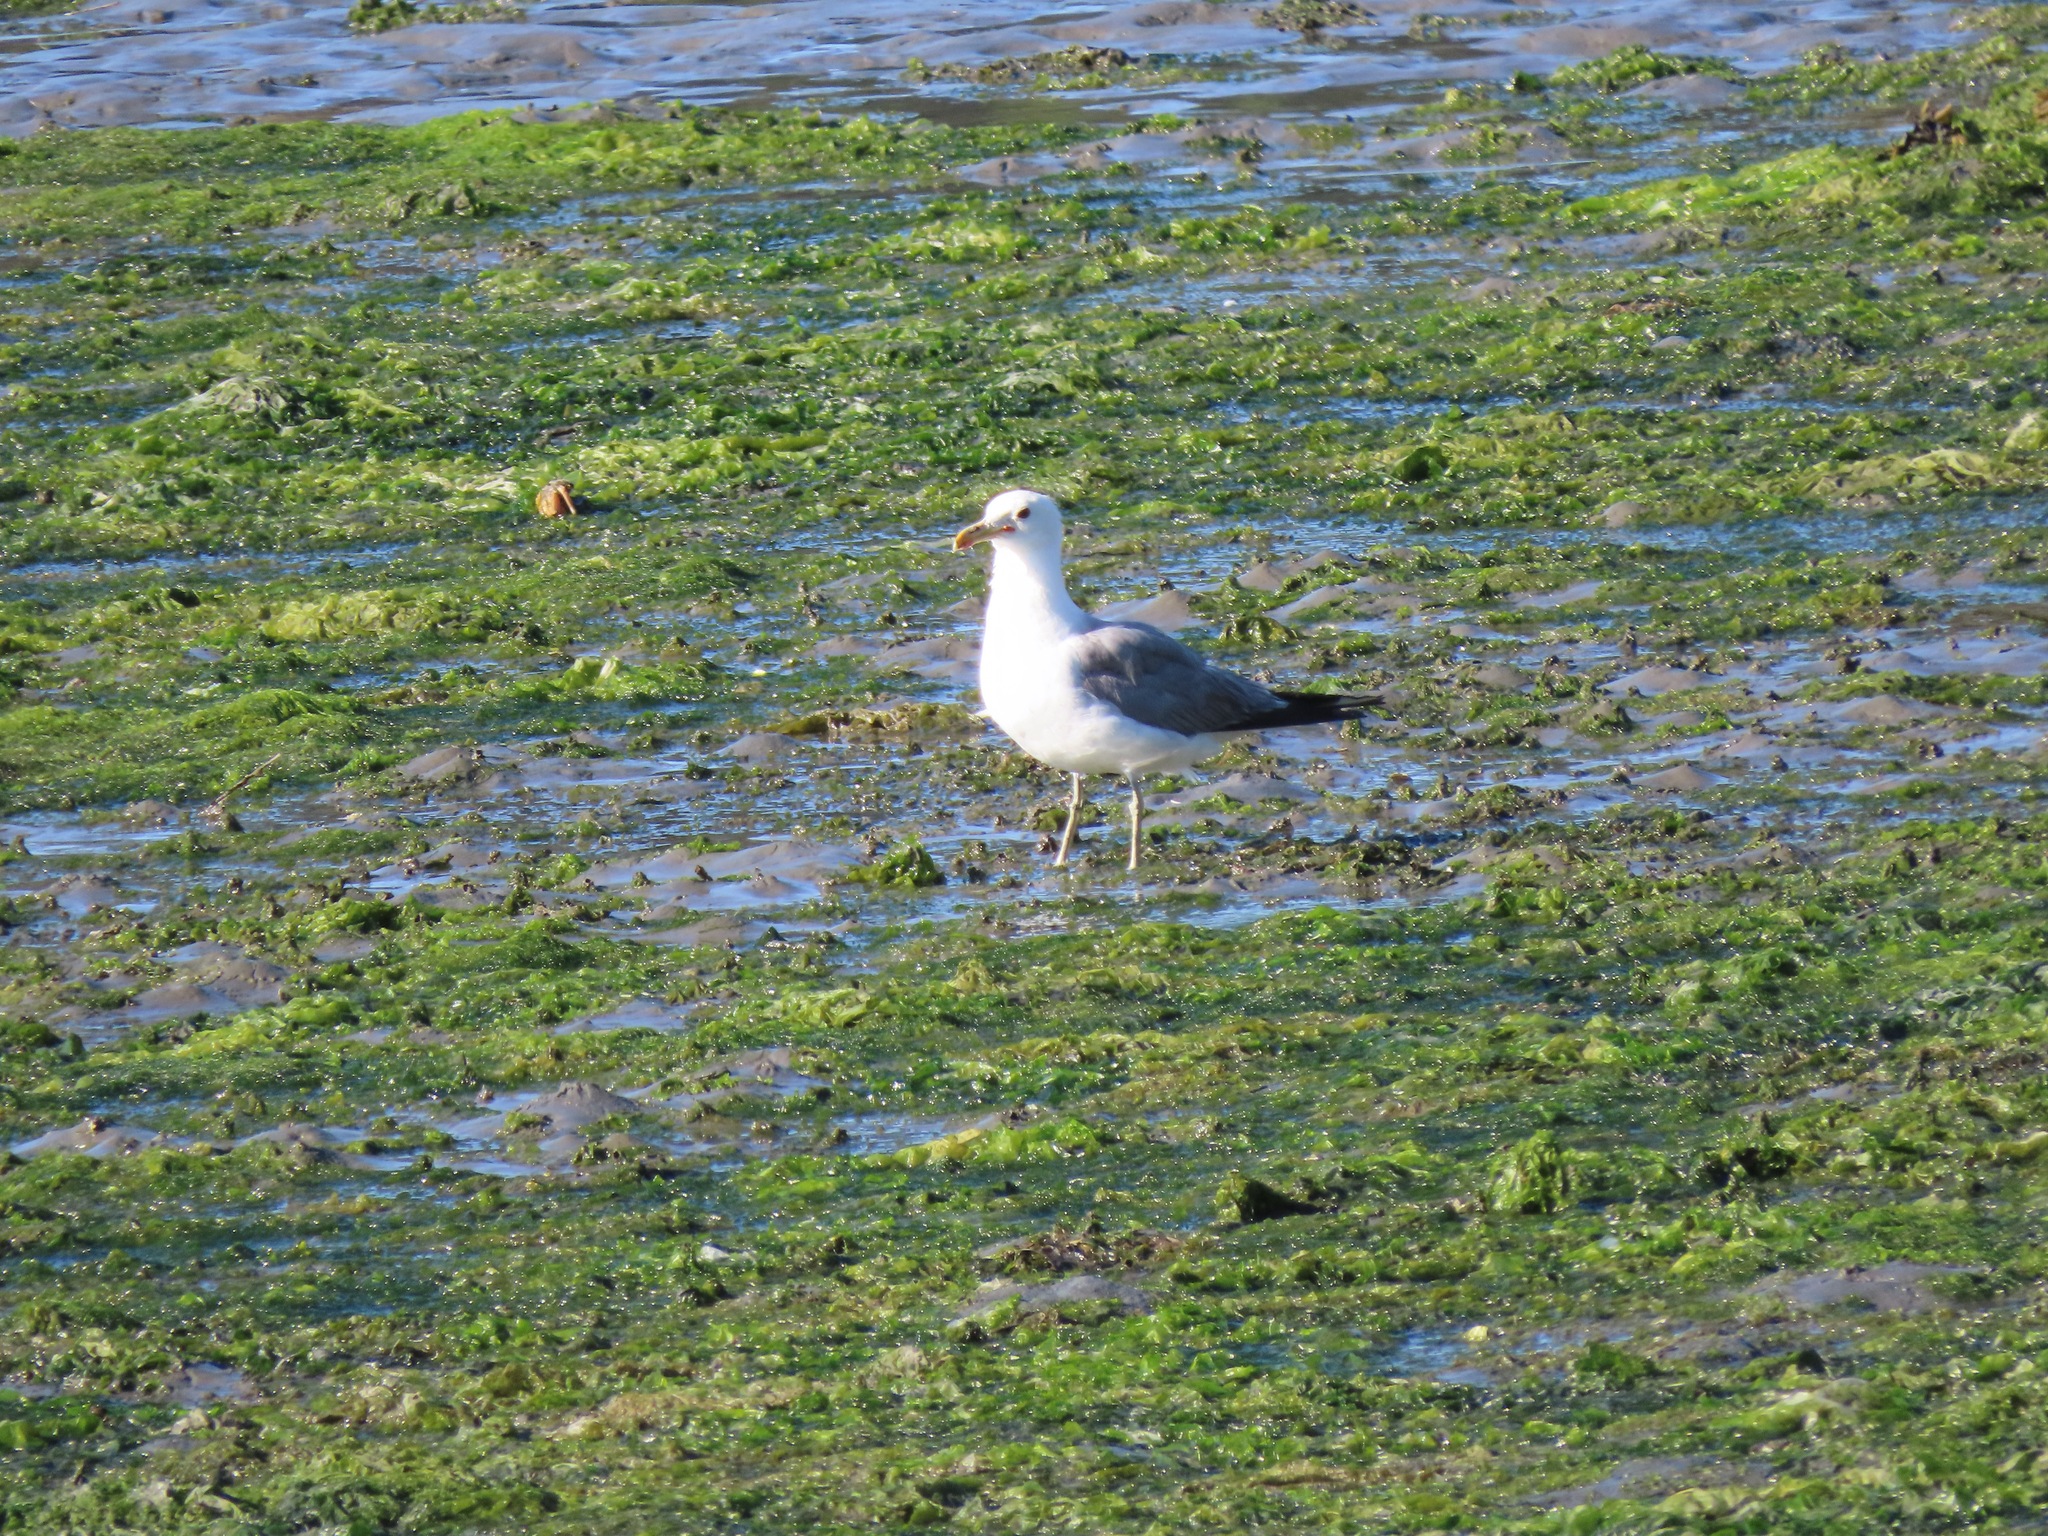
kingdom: Animalia
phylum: Chordata
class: Aves
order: Charadriiformes
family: Laridae
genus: Larus
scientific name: Larus brachyrhynchus
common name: Short-billed gull
